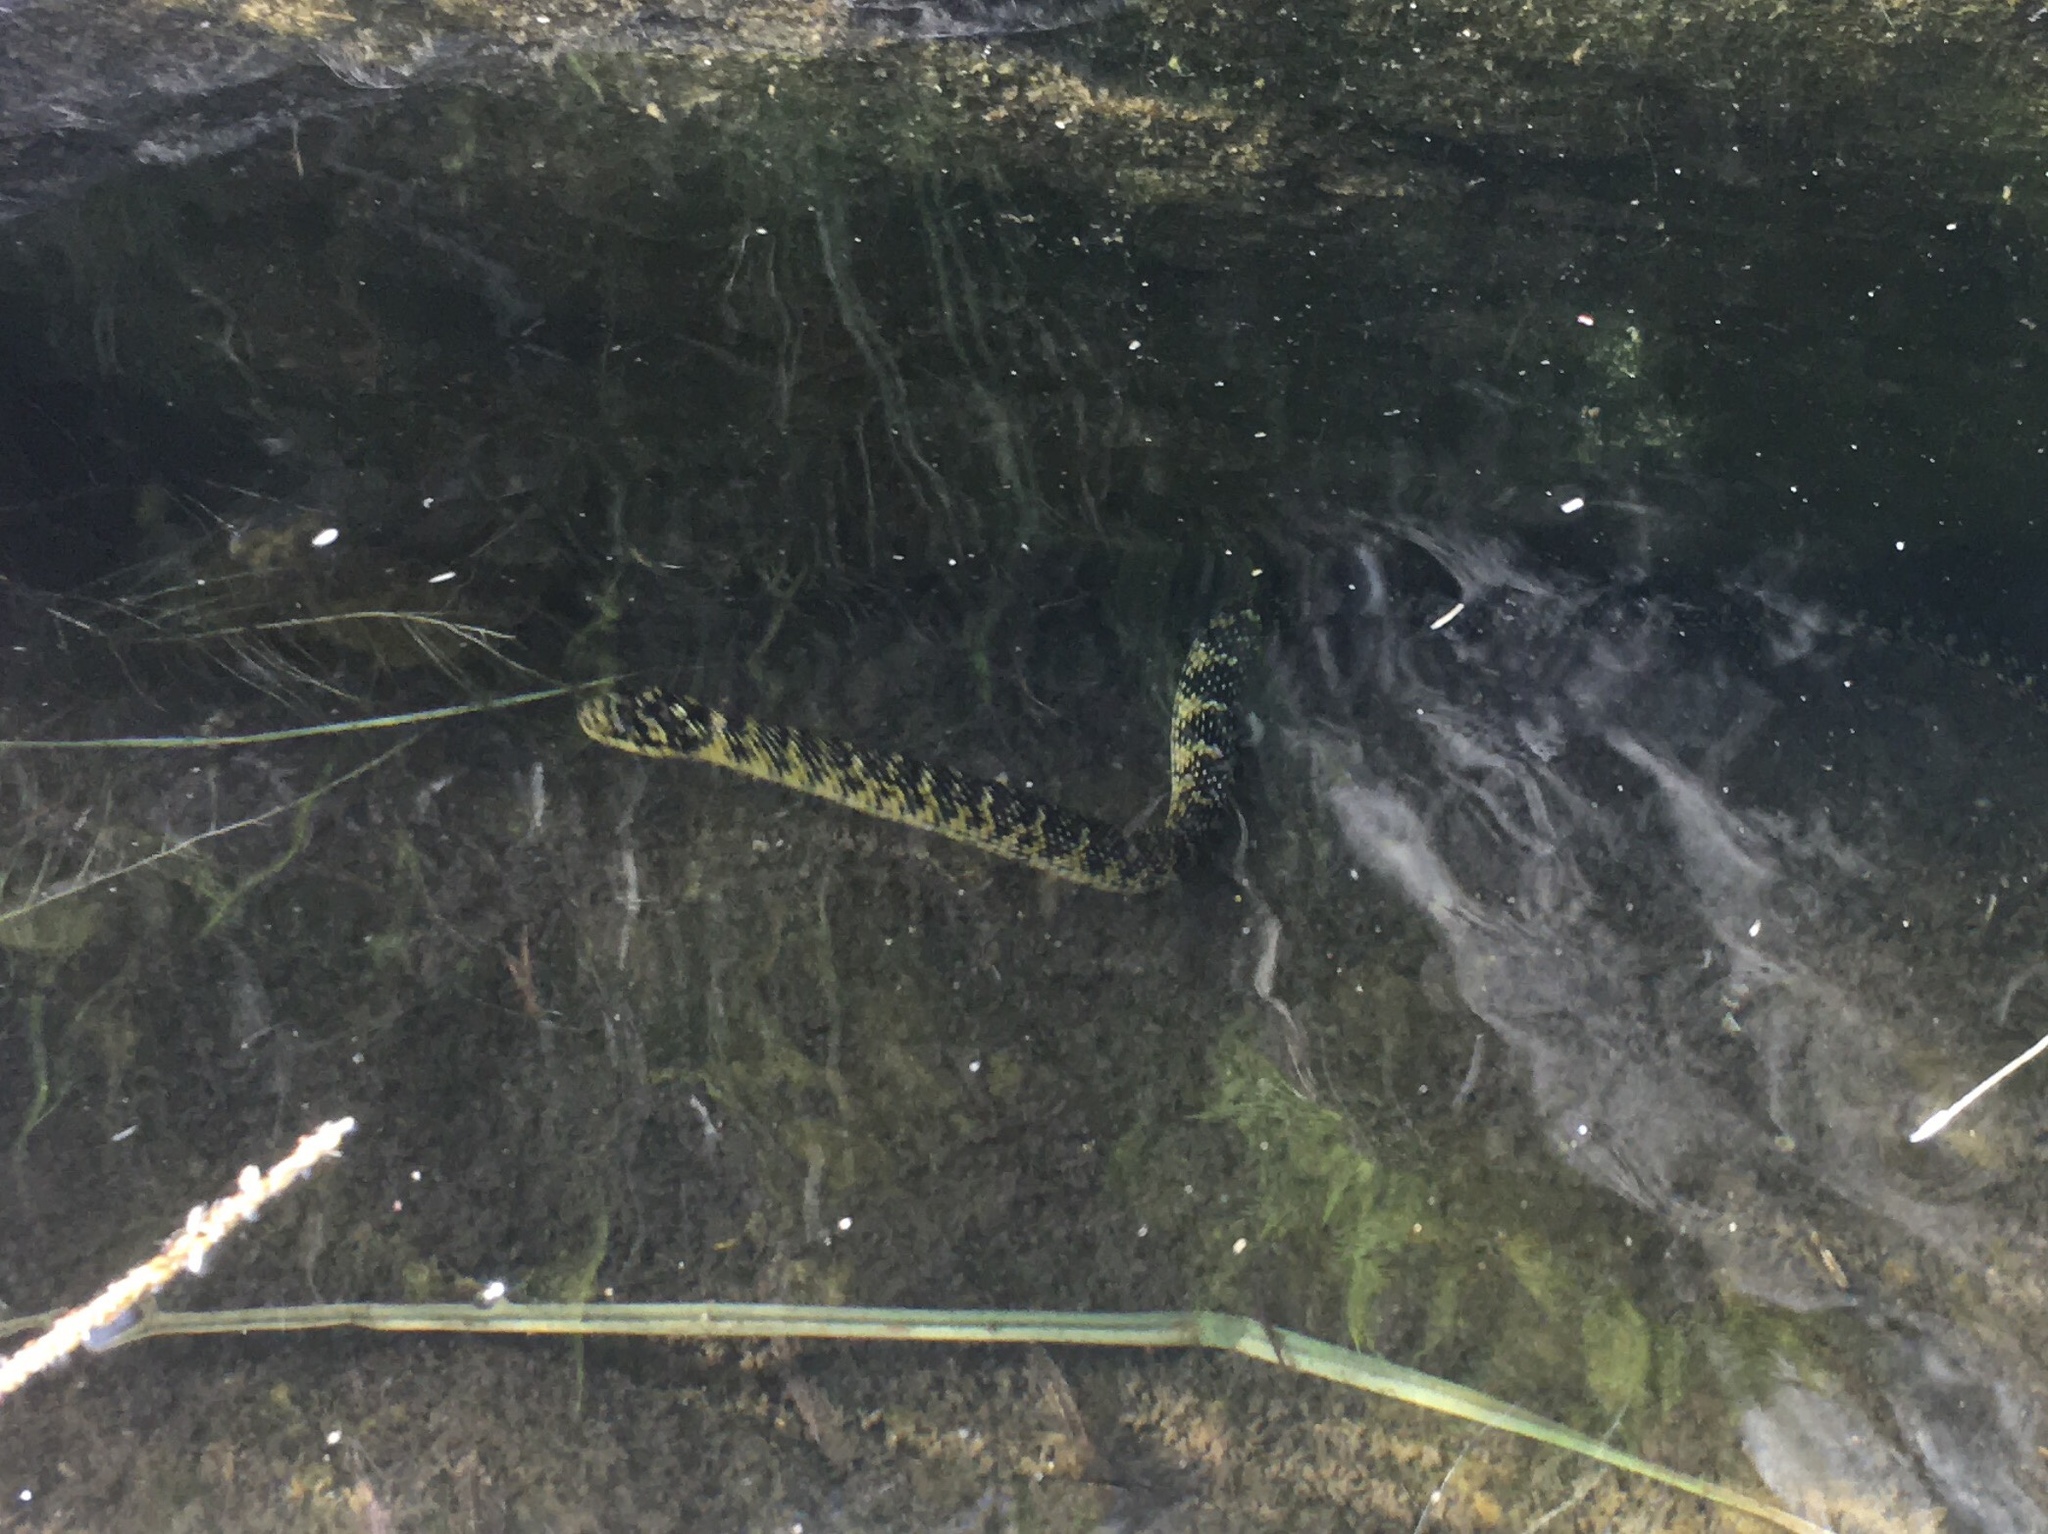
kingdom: Animalia
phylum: Chordata
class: Squamata
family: Colubridae
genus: Erythrolamprus
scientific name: Erythrolamprus poecilogyrus
